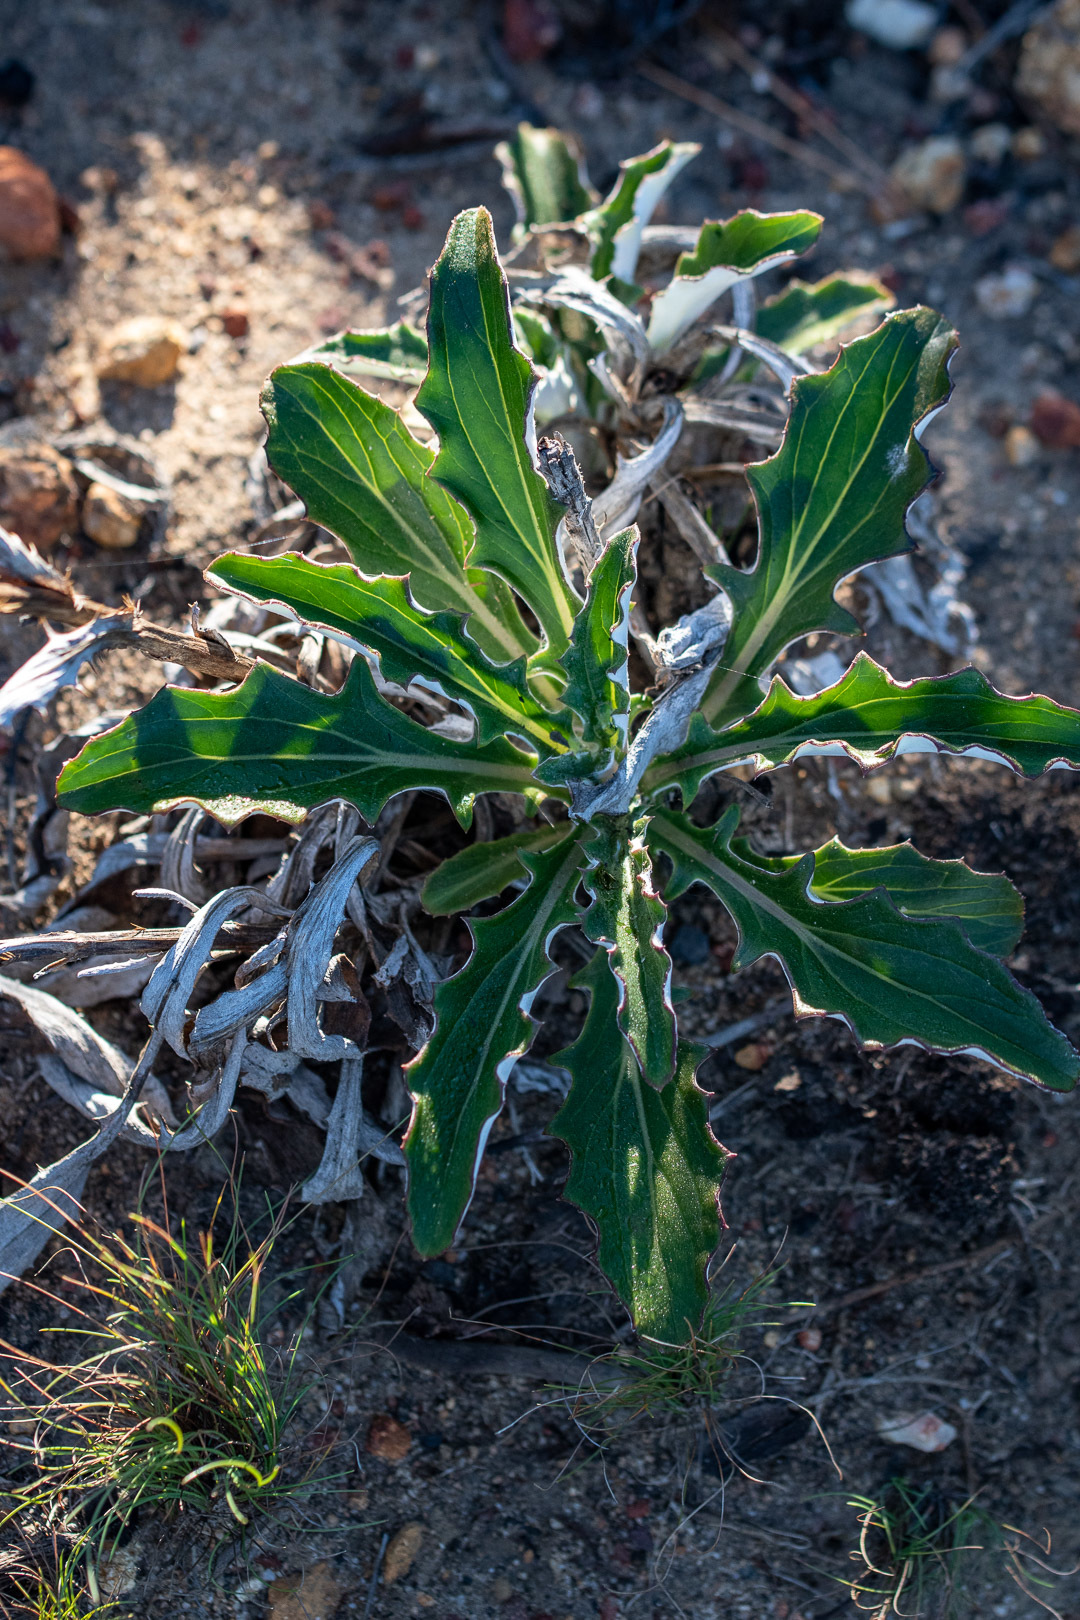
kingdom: Plantae
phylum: Tracheophyta
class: Magnoliopsida
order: Asterales
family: Asteraceae
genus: Berkheya
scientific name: Berkheya herbacea
